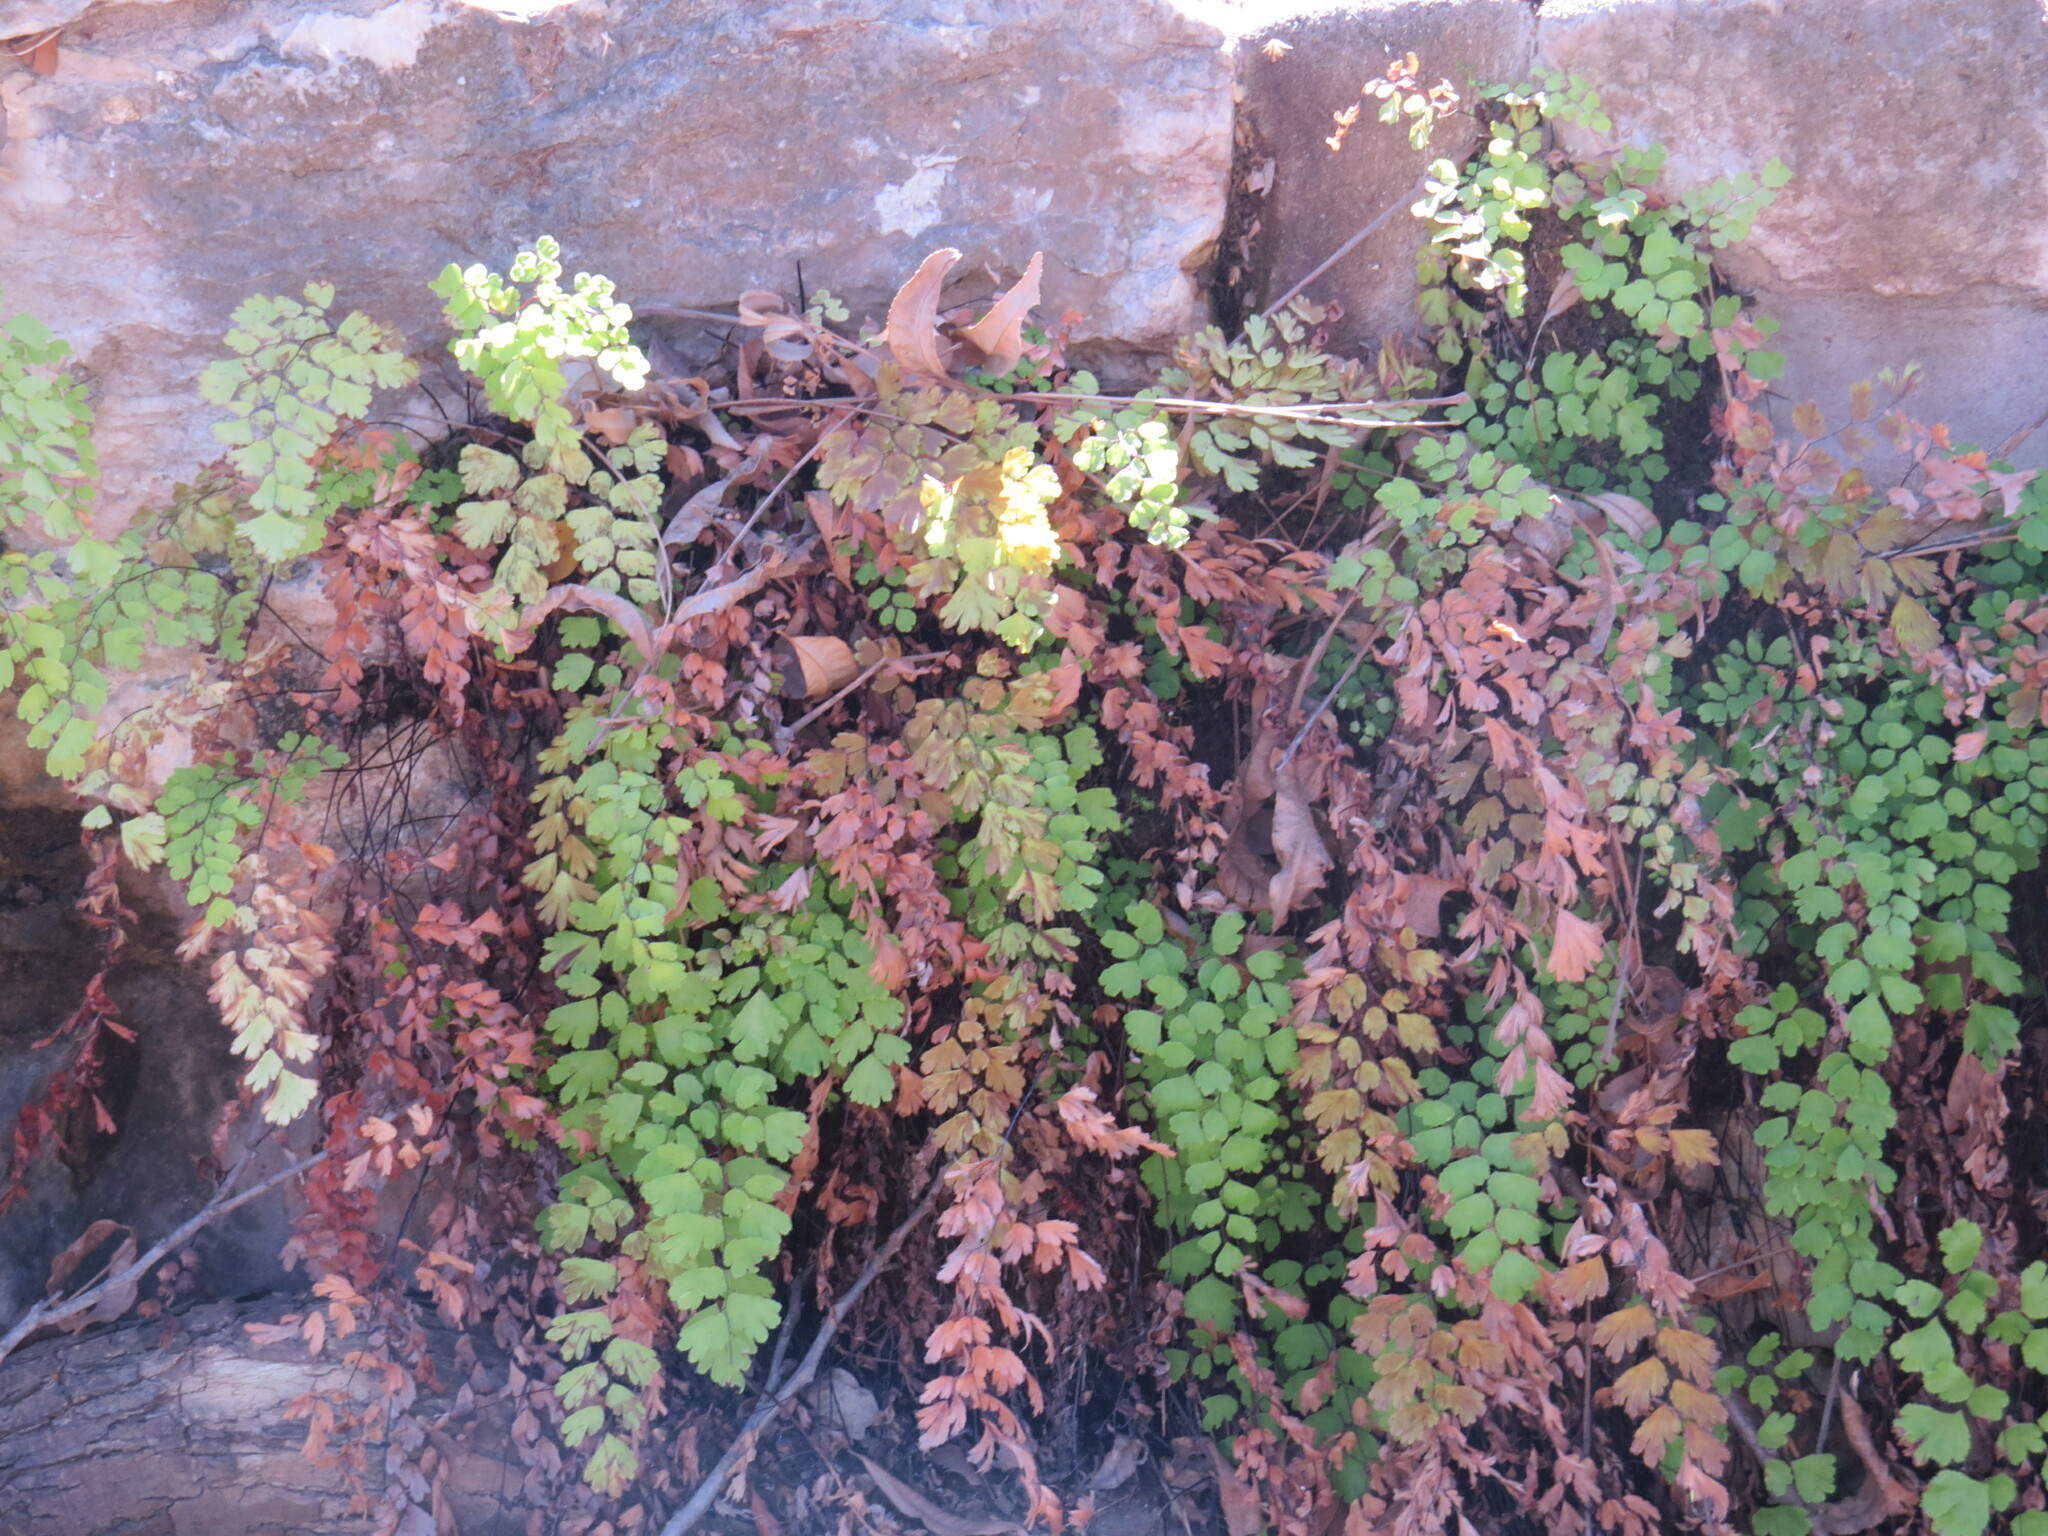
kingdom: Plantae
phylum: Tracheophyta
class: Polypodiopsida
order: Polypodiales
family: Pteridaceae
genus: Adiantum
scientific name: Adiantum capillus-veneris
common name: Maidenhair fern
